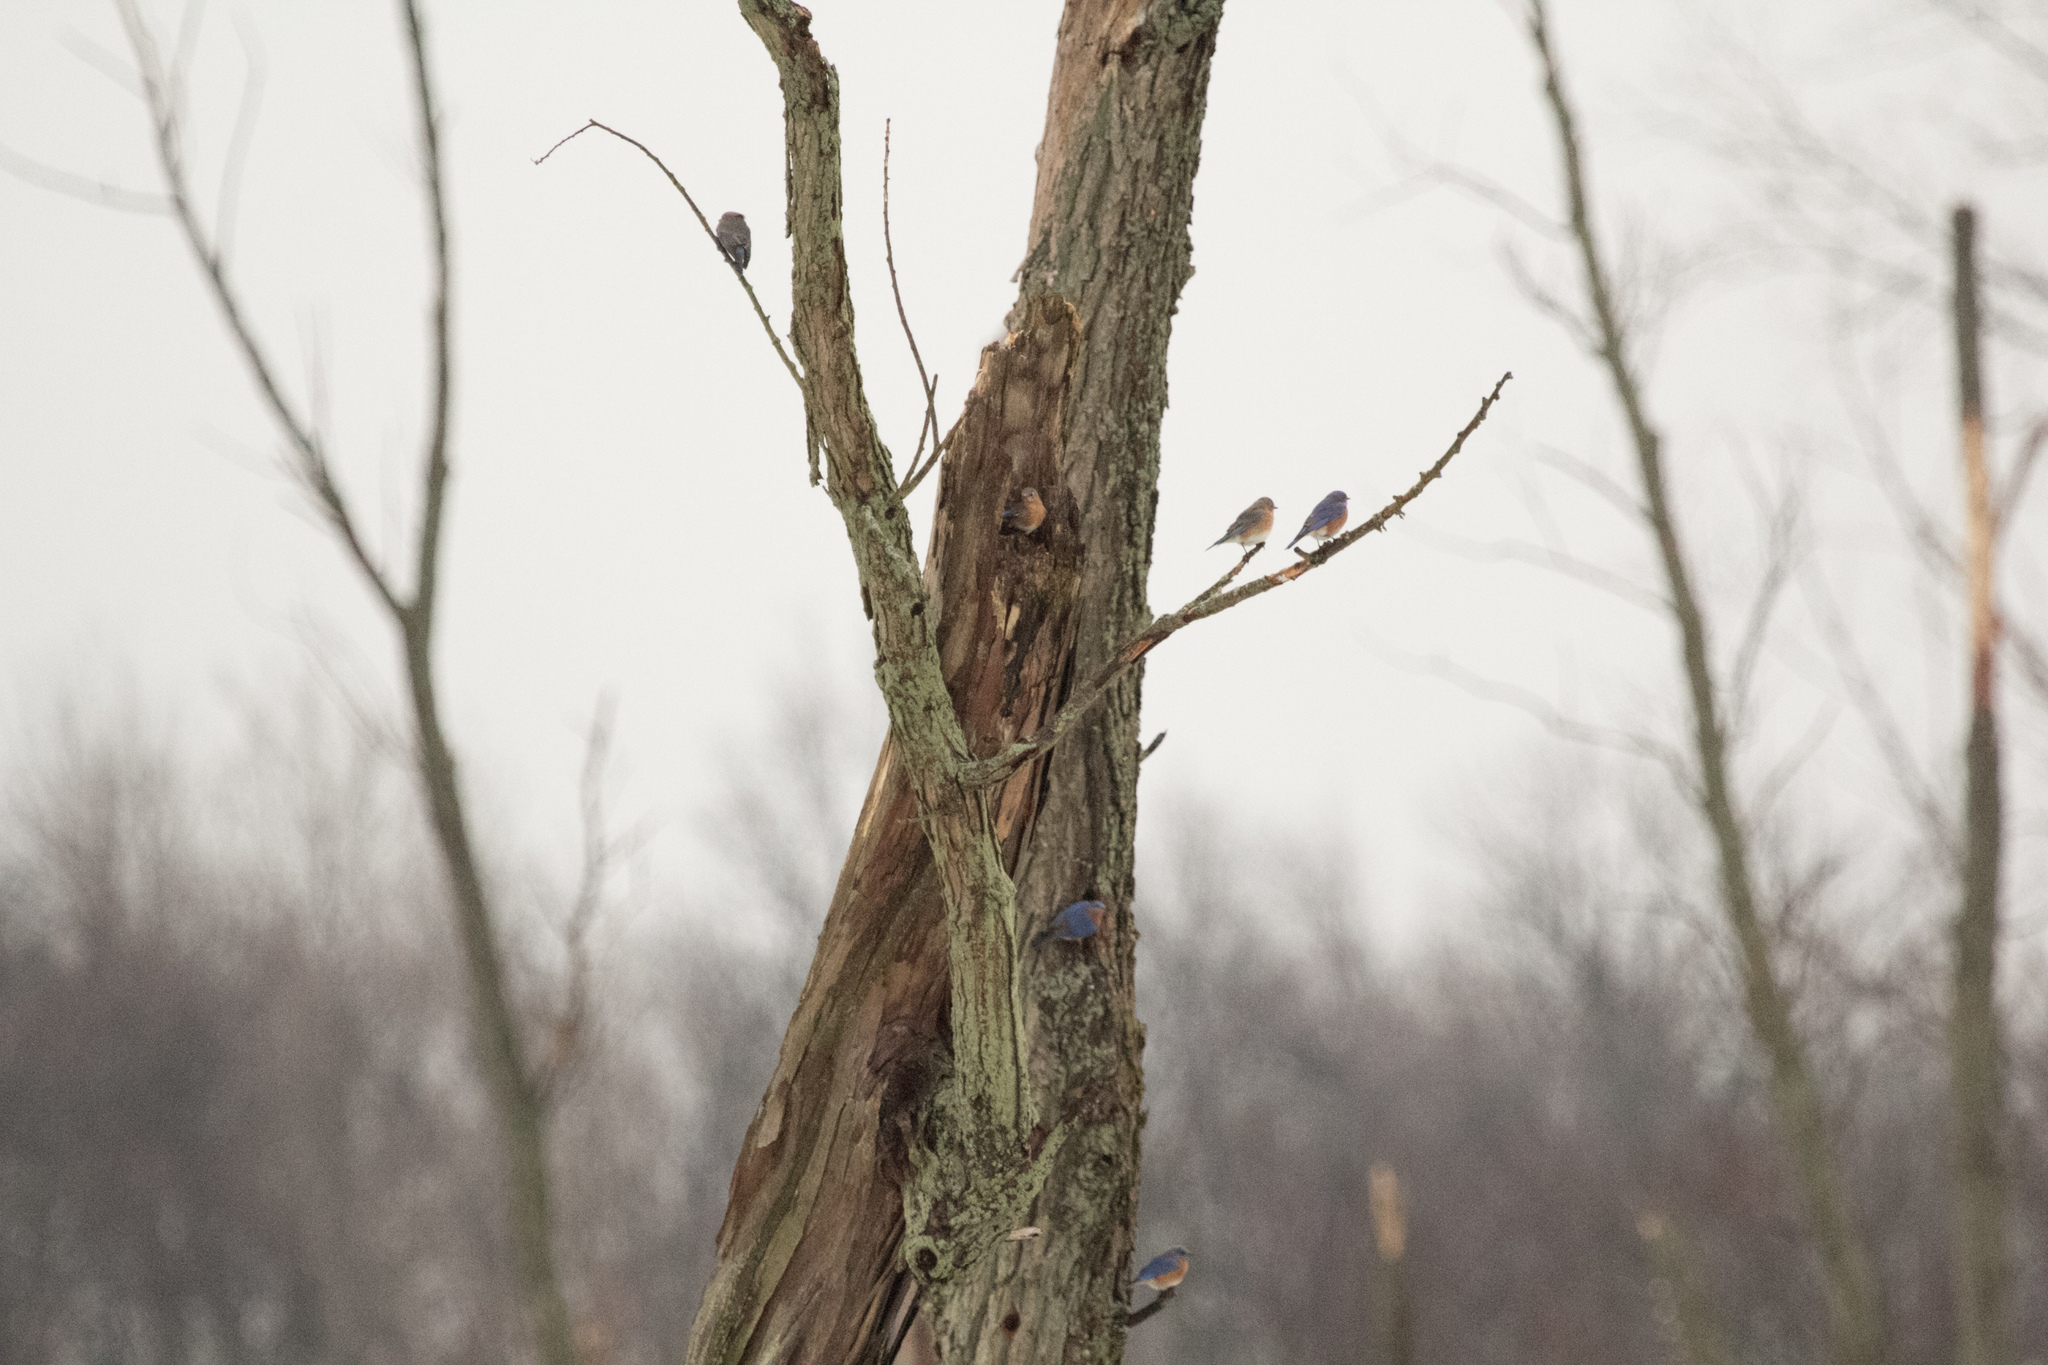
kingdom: Animalia
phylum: Chordata
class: Aves
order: Passeriformes
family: Turdidae
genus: Sialia
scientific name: Sialia sialis
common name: Eastern bluebird
